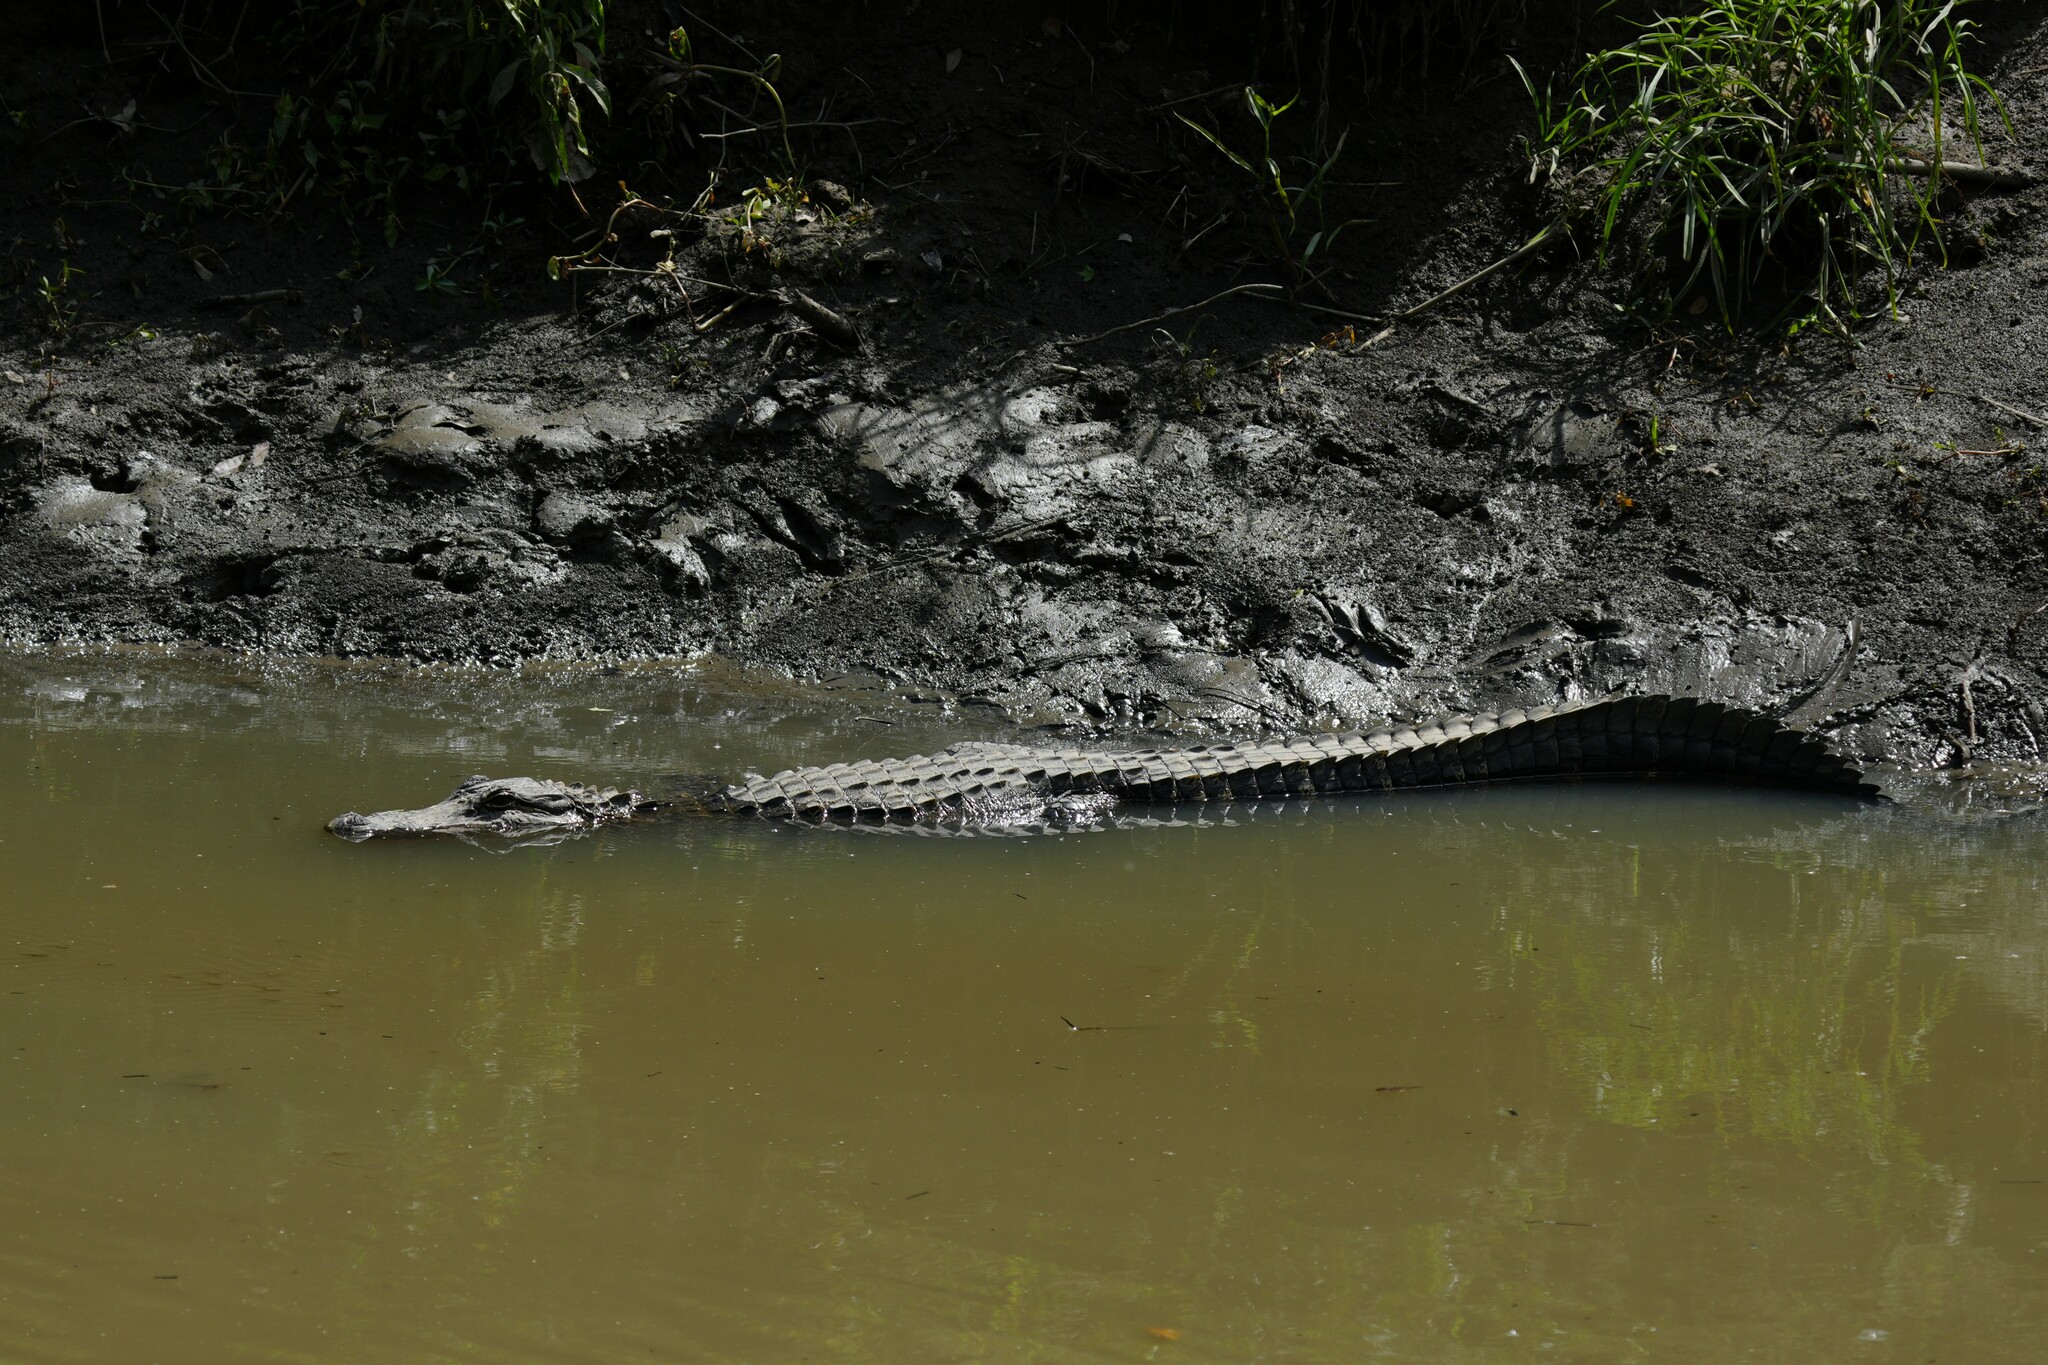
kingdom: Animalia
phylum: Chordata
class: Crocodylia
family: Alligatoridae
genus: Alligator
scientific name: Alligator mississippiensis
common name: American alligator
